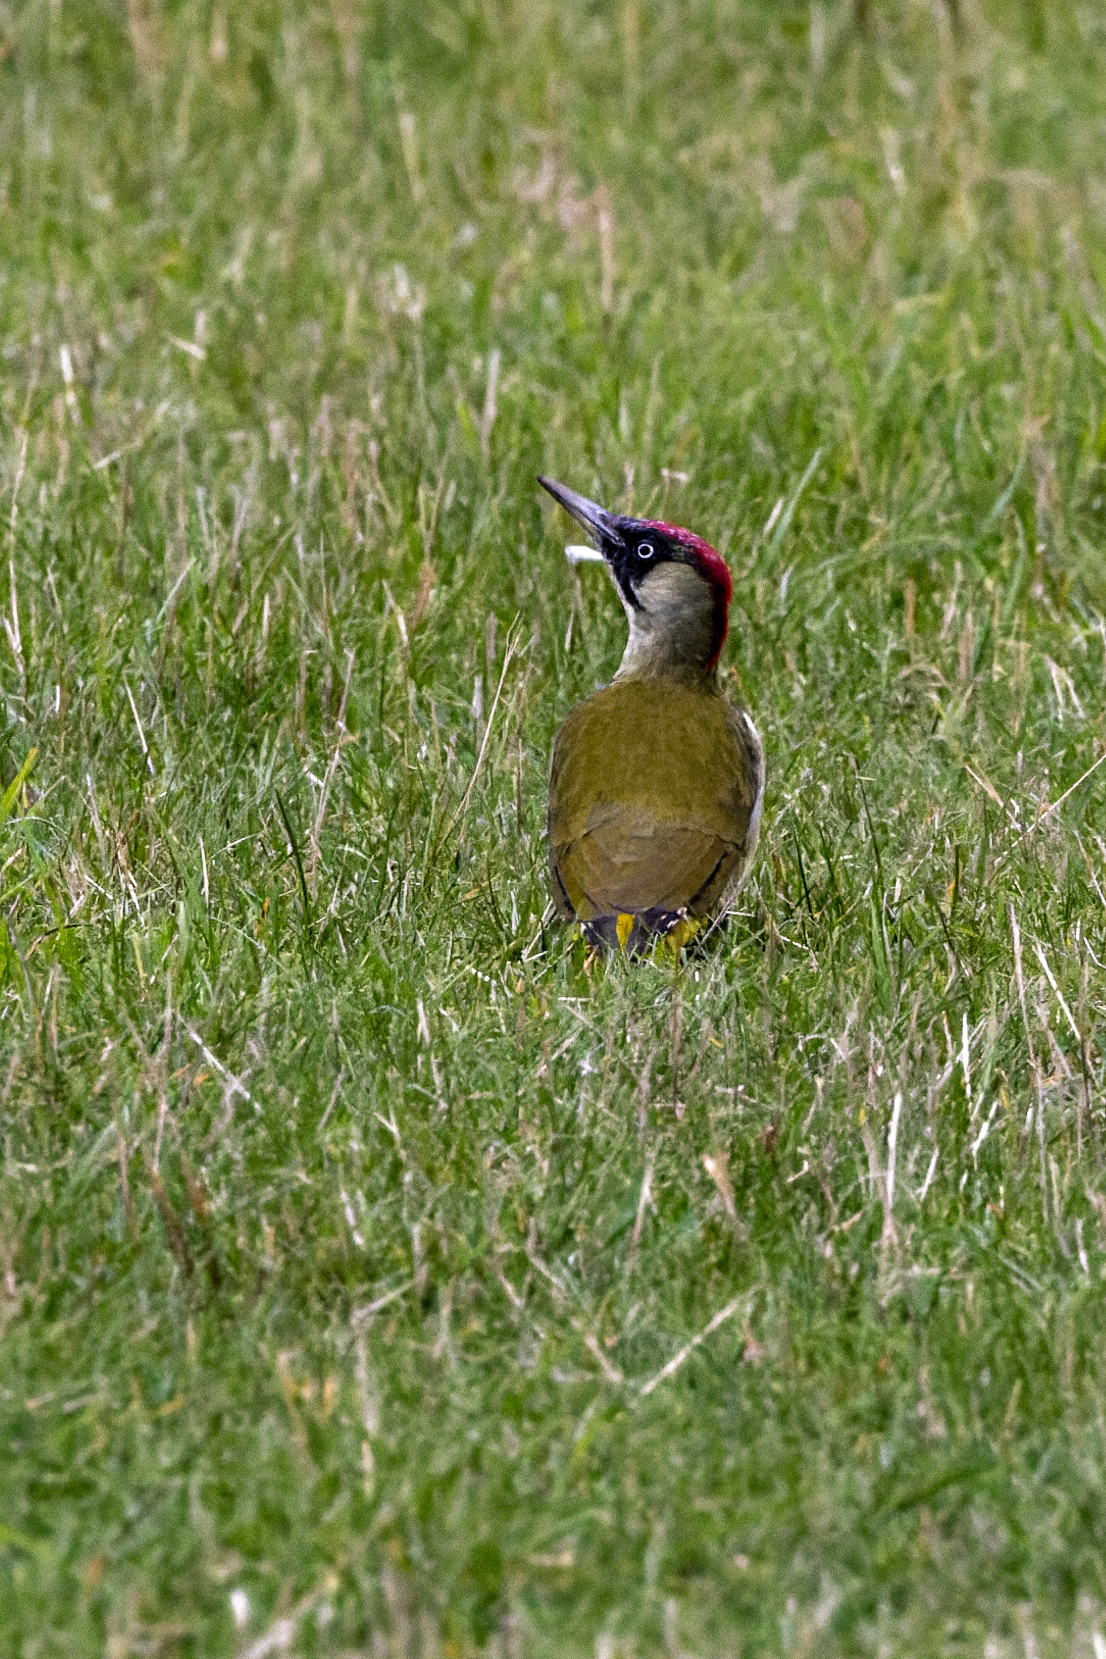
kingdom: Animalia
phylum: Chordata
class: Aves
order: Piciformes
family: Picidae
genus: Picus
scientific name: Picus viridis
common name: European green woodpecker
